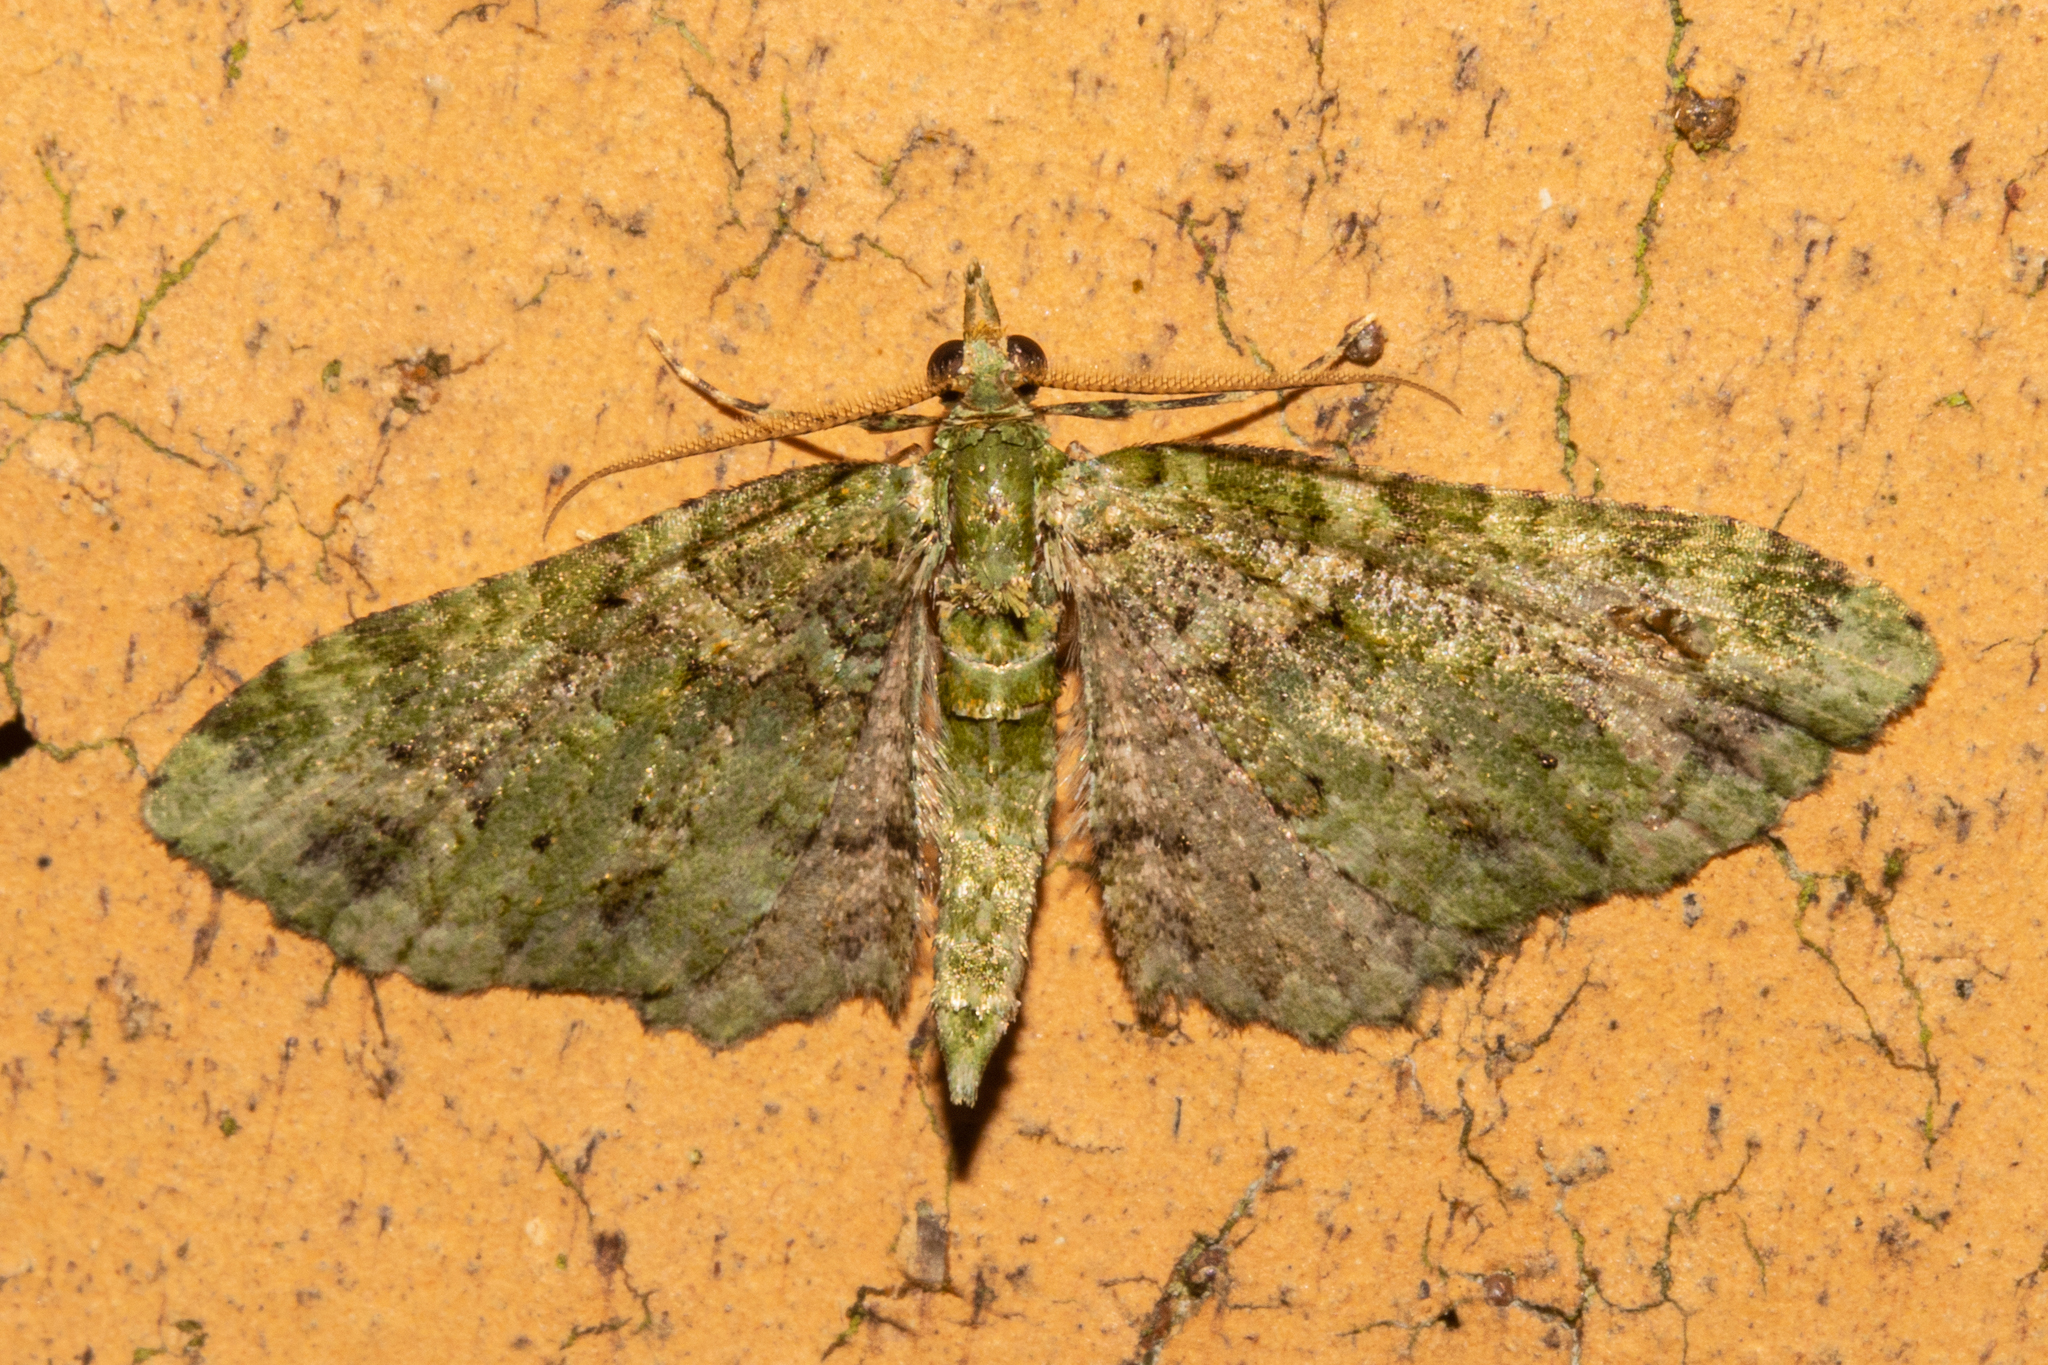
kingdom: Animalia
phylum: Arthropoda
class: Insecta
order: Lepidoptera
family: Geometridae
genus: Pasiphila
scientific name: Pasiphila muscosata
